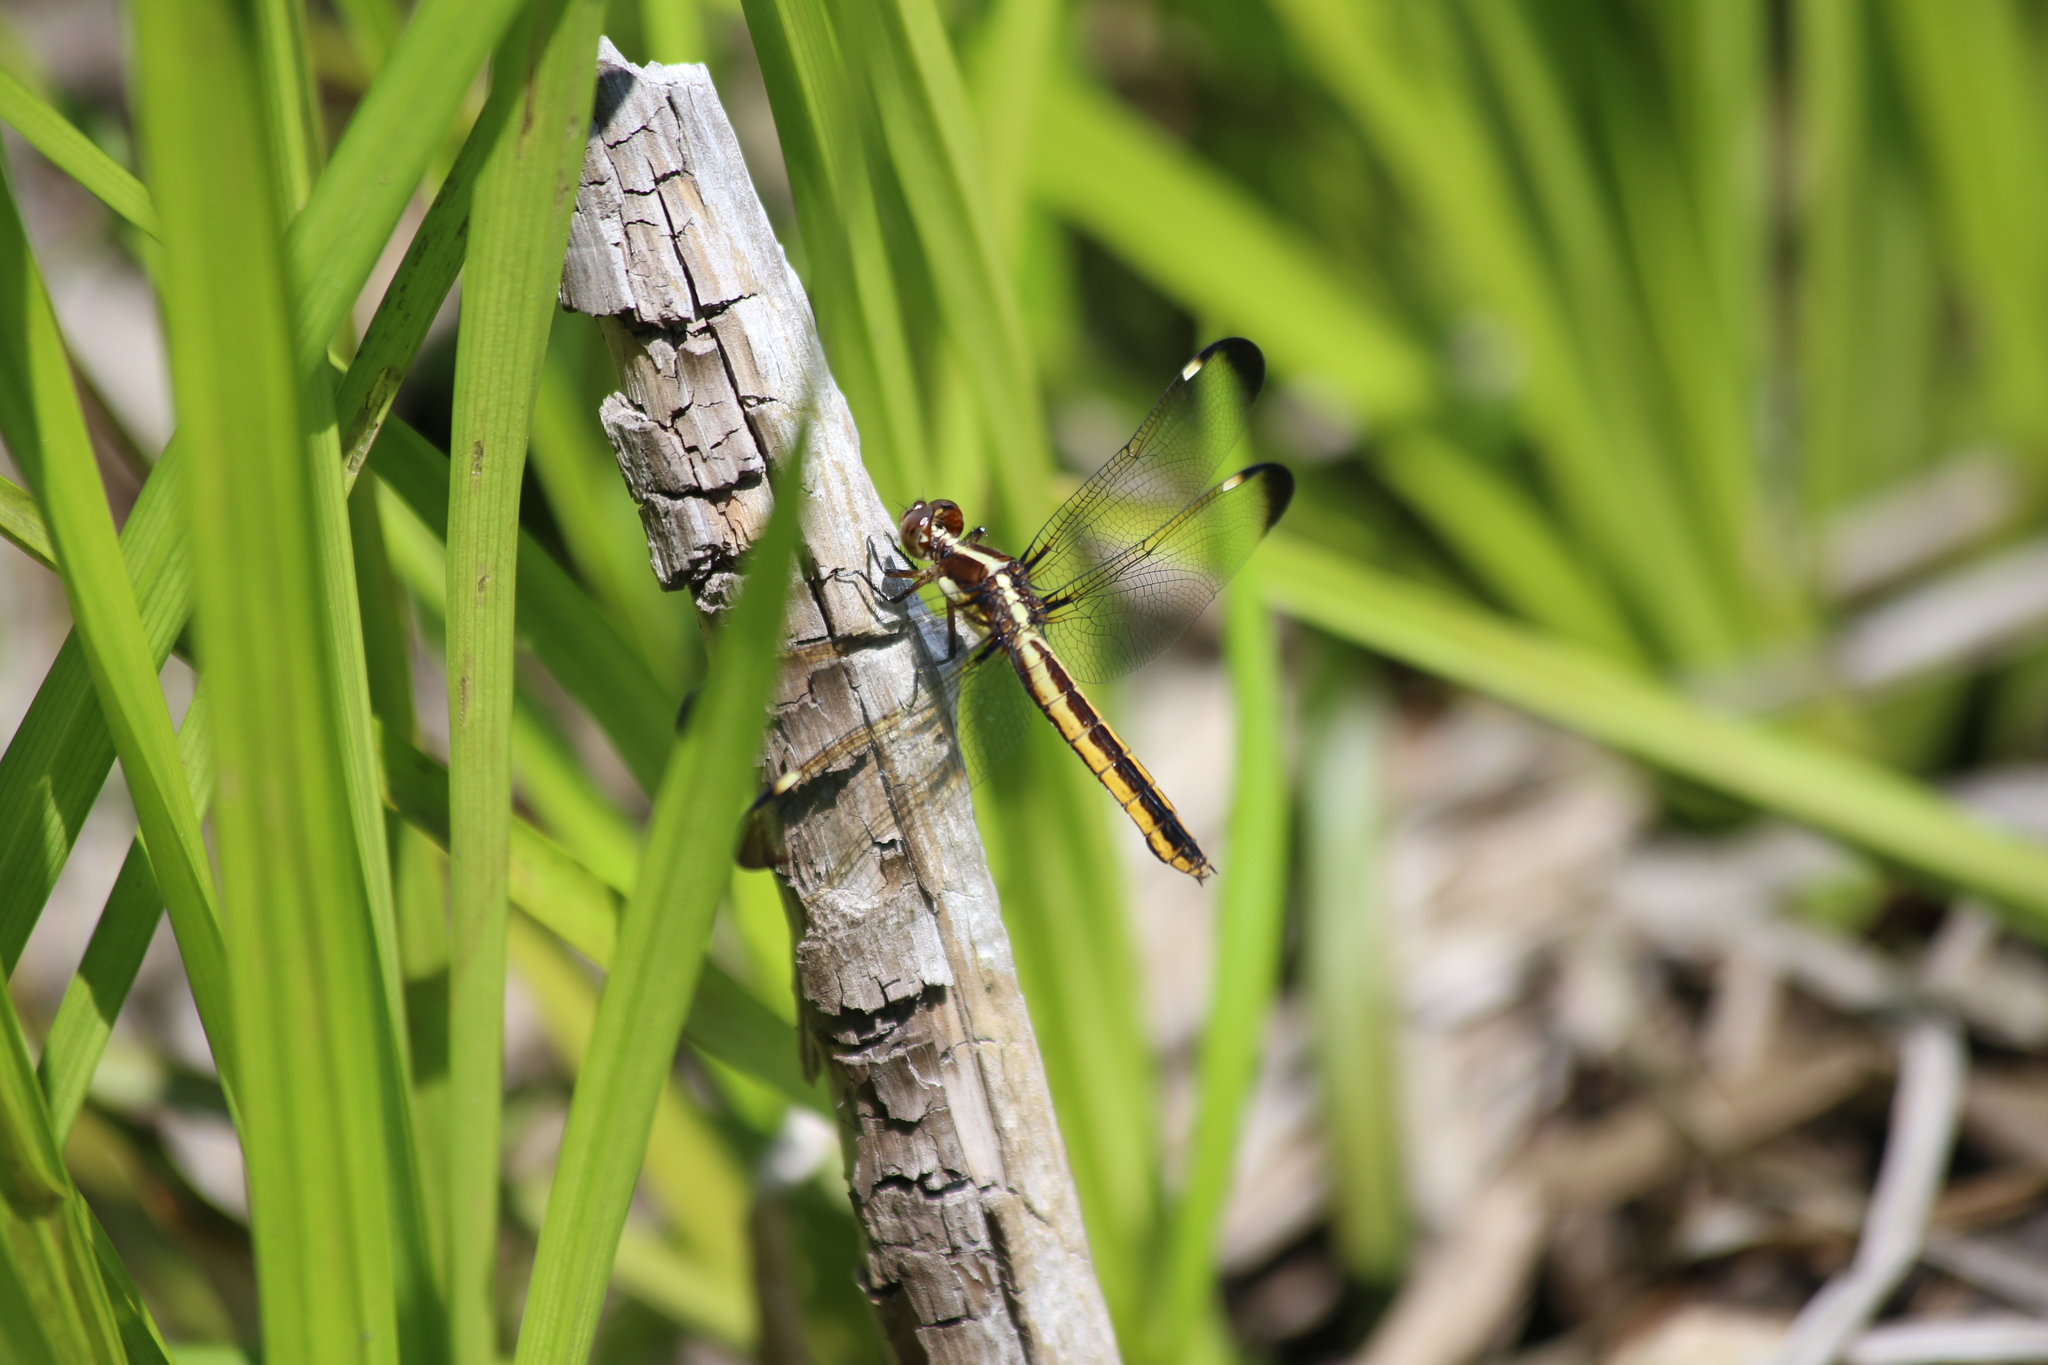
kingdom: Animalia
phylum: Arthropoda
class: Insecta
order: Odonata
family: Libellulidae
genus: Libellula
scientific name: Libellula cyanea
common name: Spangled skimmer
